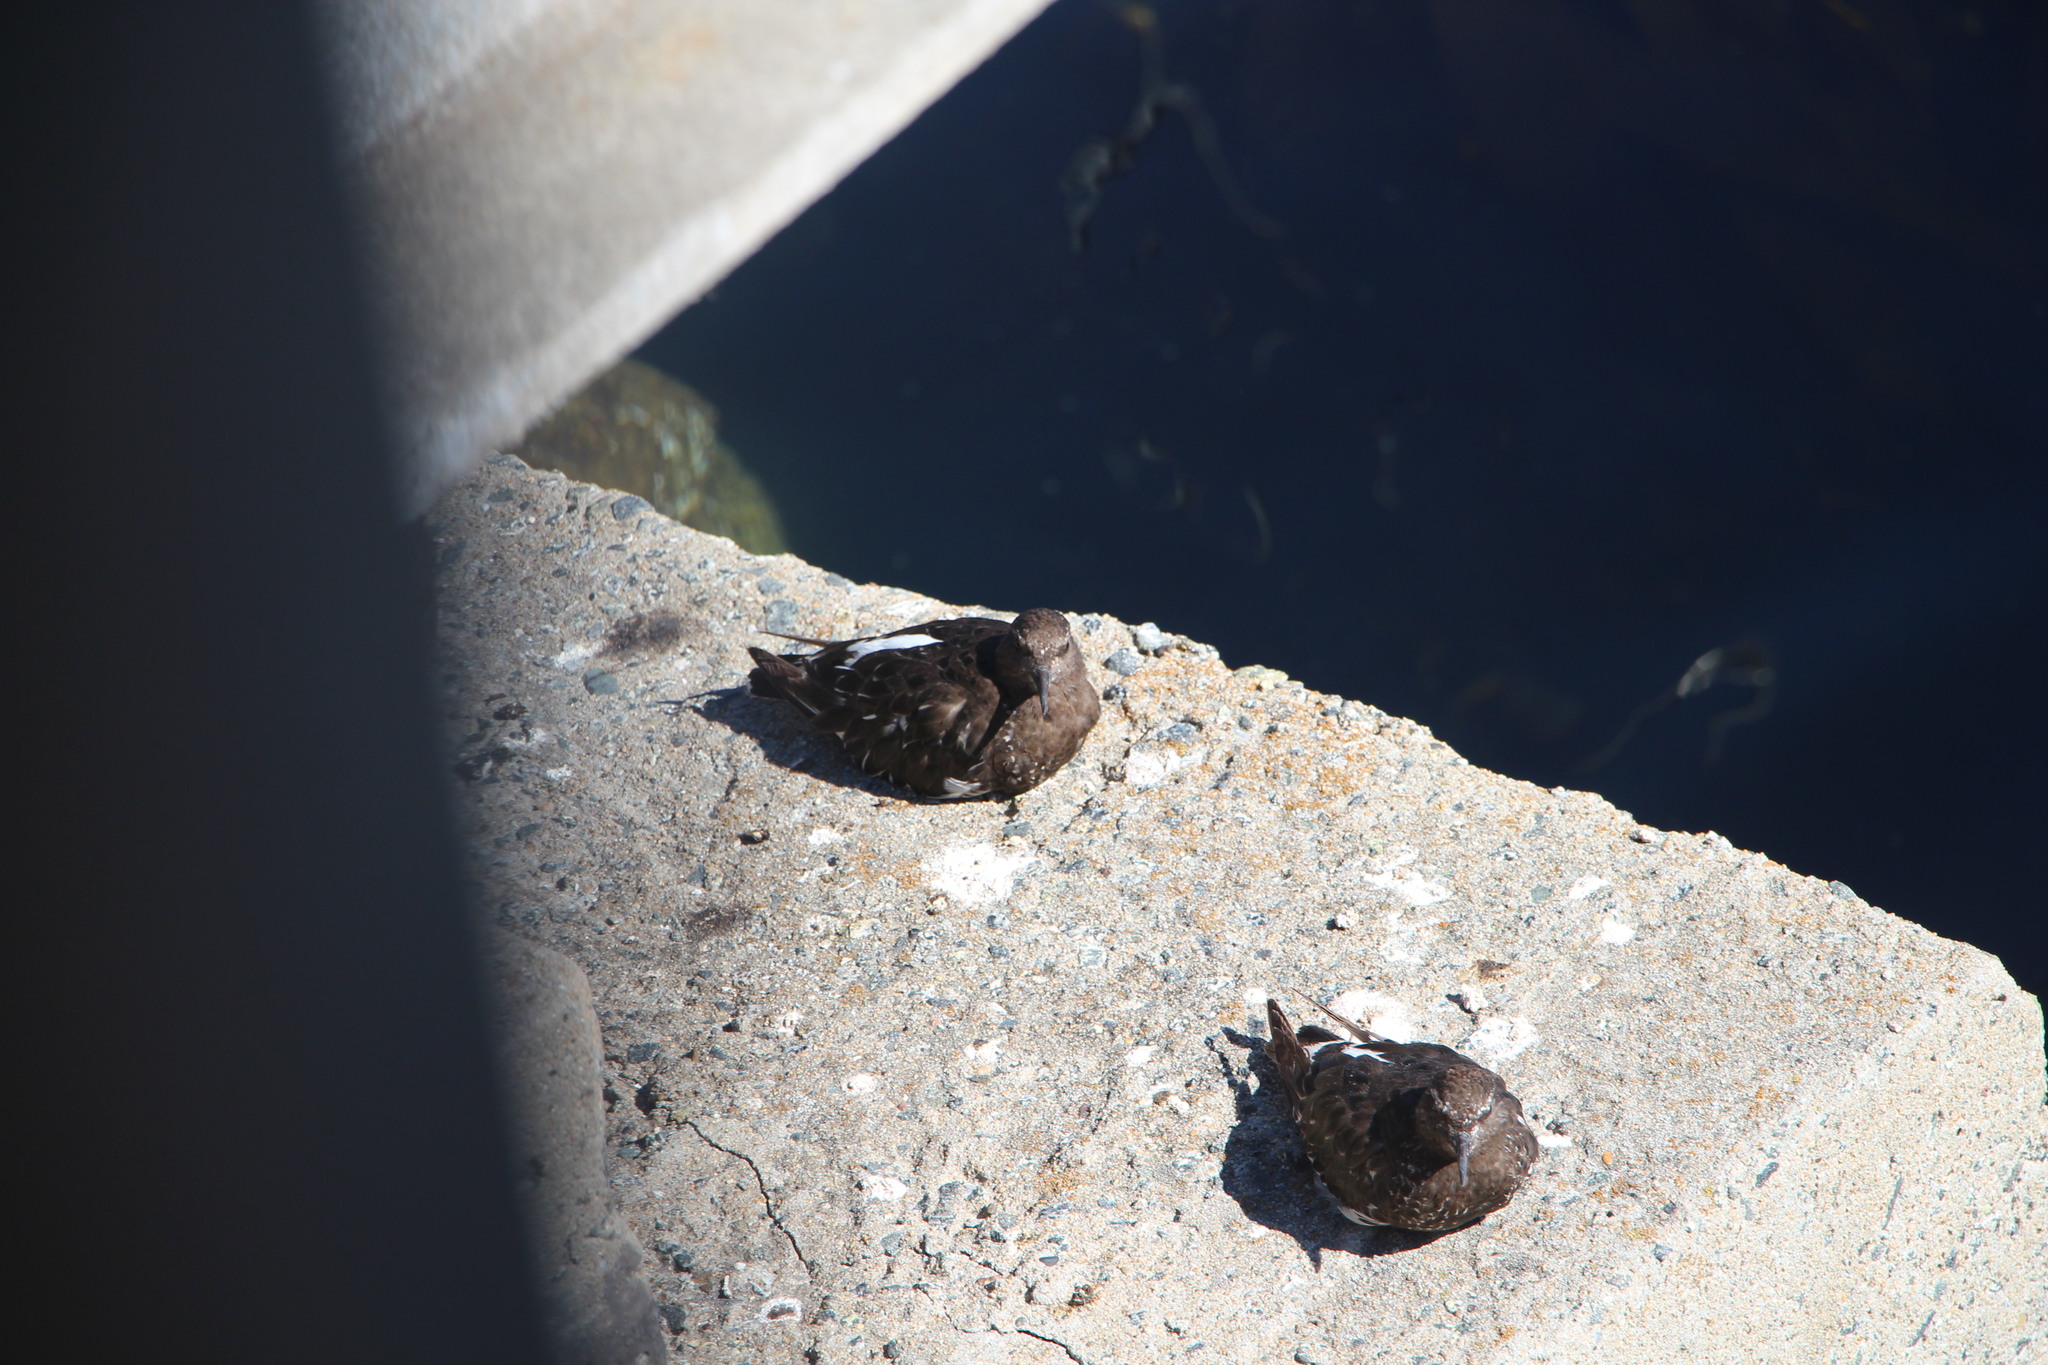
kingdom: Animalia
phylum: Chordata
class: Aves
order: Charadriiformes
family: Scolopacidae
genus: Arenaria
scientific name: Arenaria melanocephala
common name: Black turnstone
